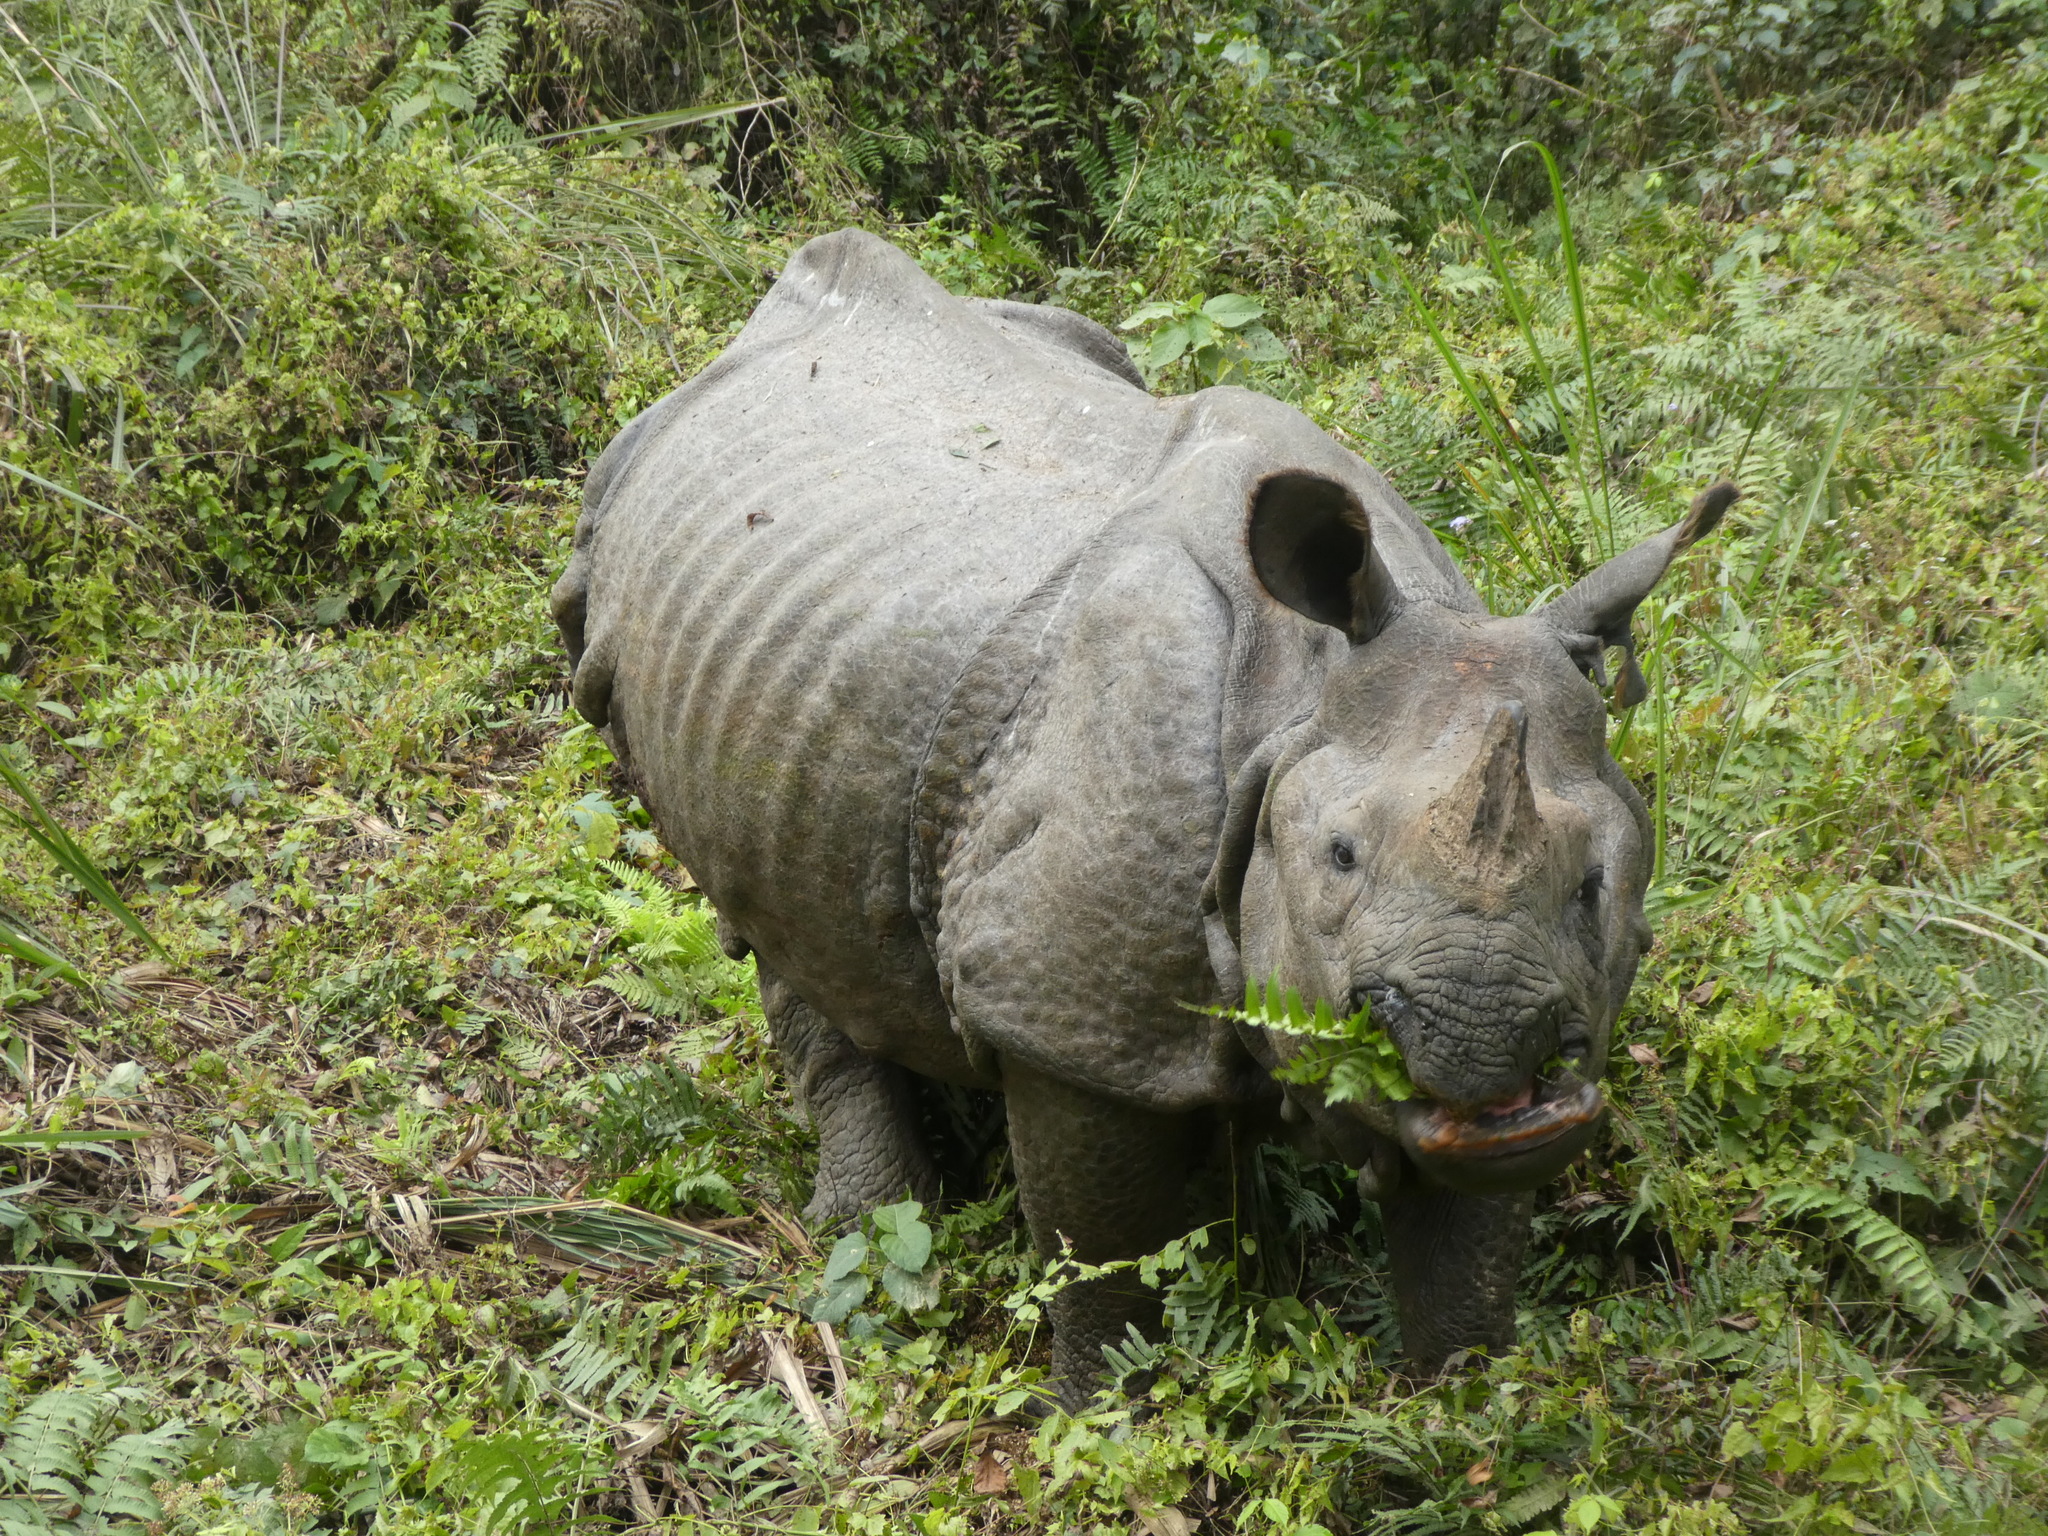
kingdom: Animalia
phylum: Chordata
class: Mammalia
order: Perissodactyla
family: Rhinocerotidae
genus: Rhinoceros
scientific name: Rhinoceros unicornis
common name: Indian rhinoceros
